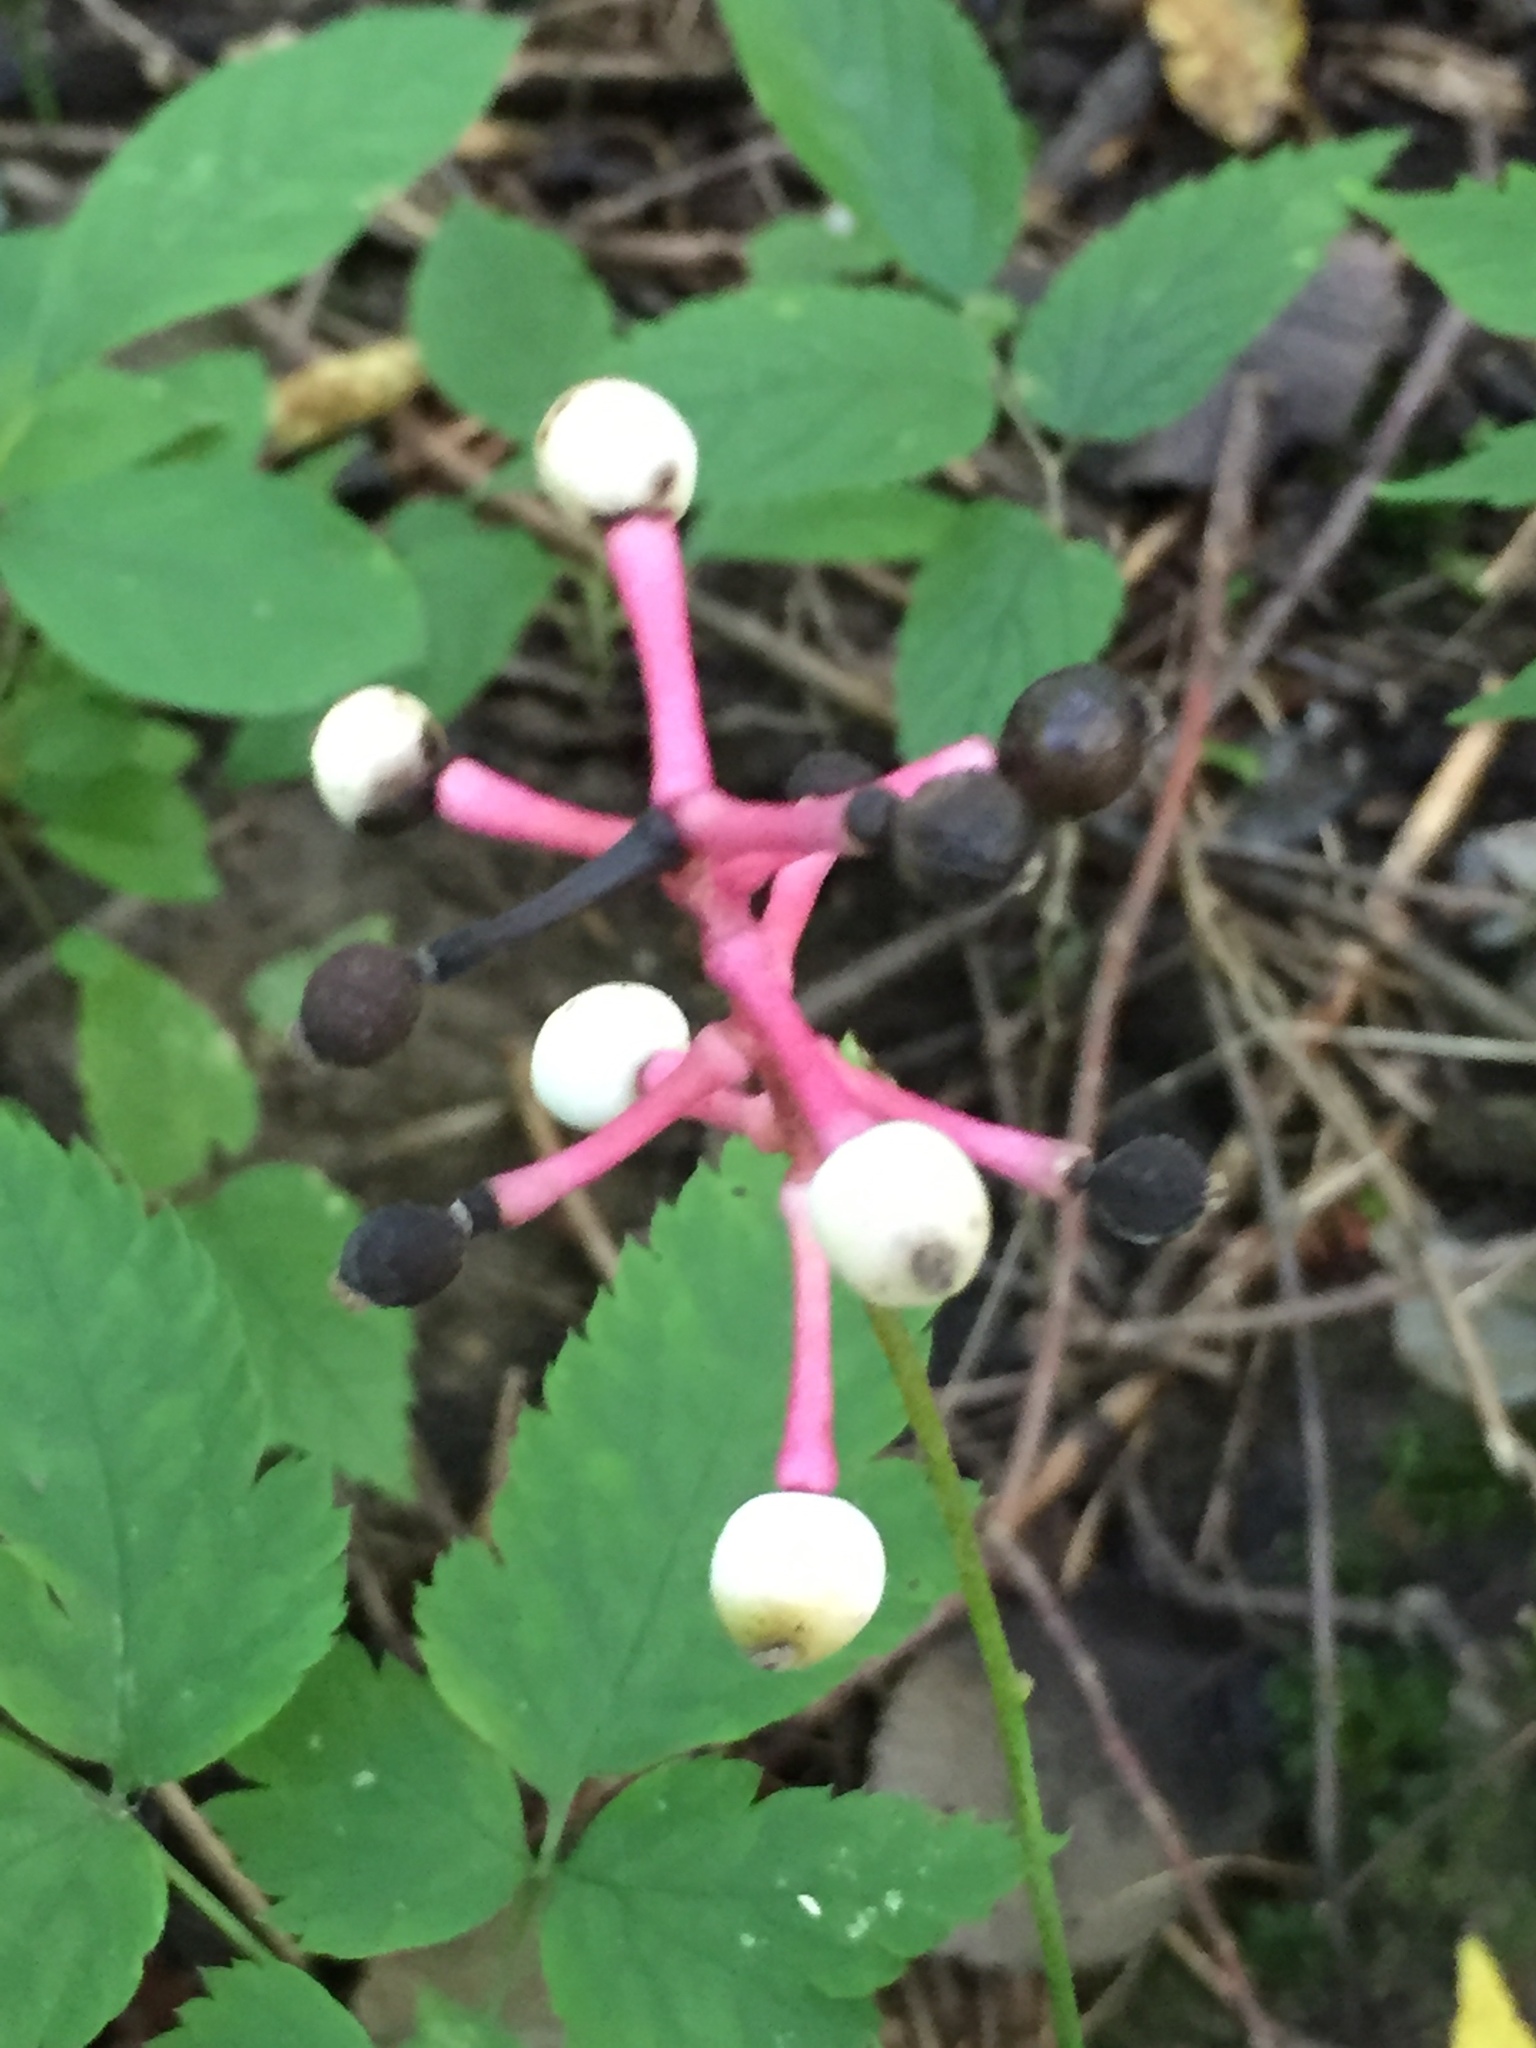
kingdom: Plantae
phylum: Tracheophyta
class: Magnoliopsida
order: Ranunculales
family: Ranunculaceae
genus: Actaea
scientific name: Actaea pachypoda
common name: Doll's-eyes
